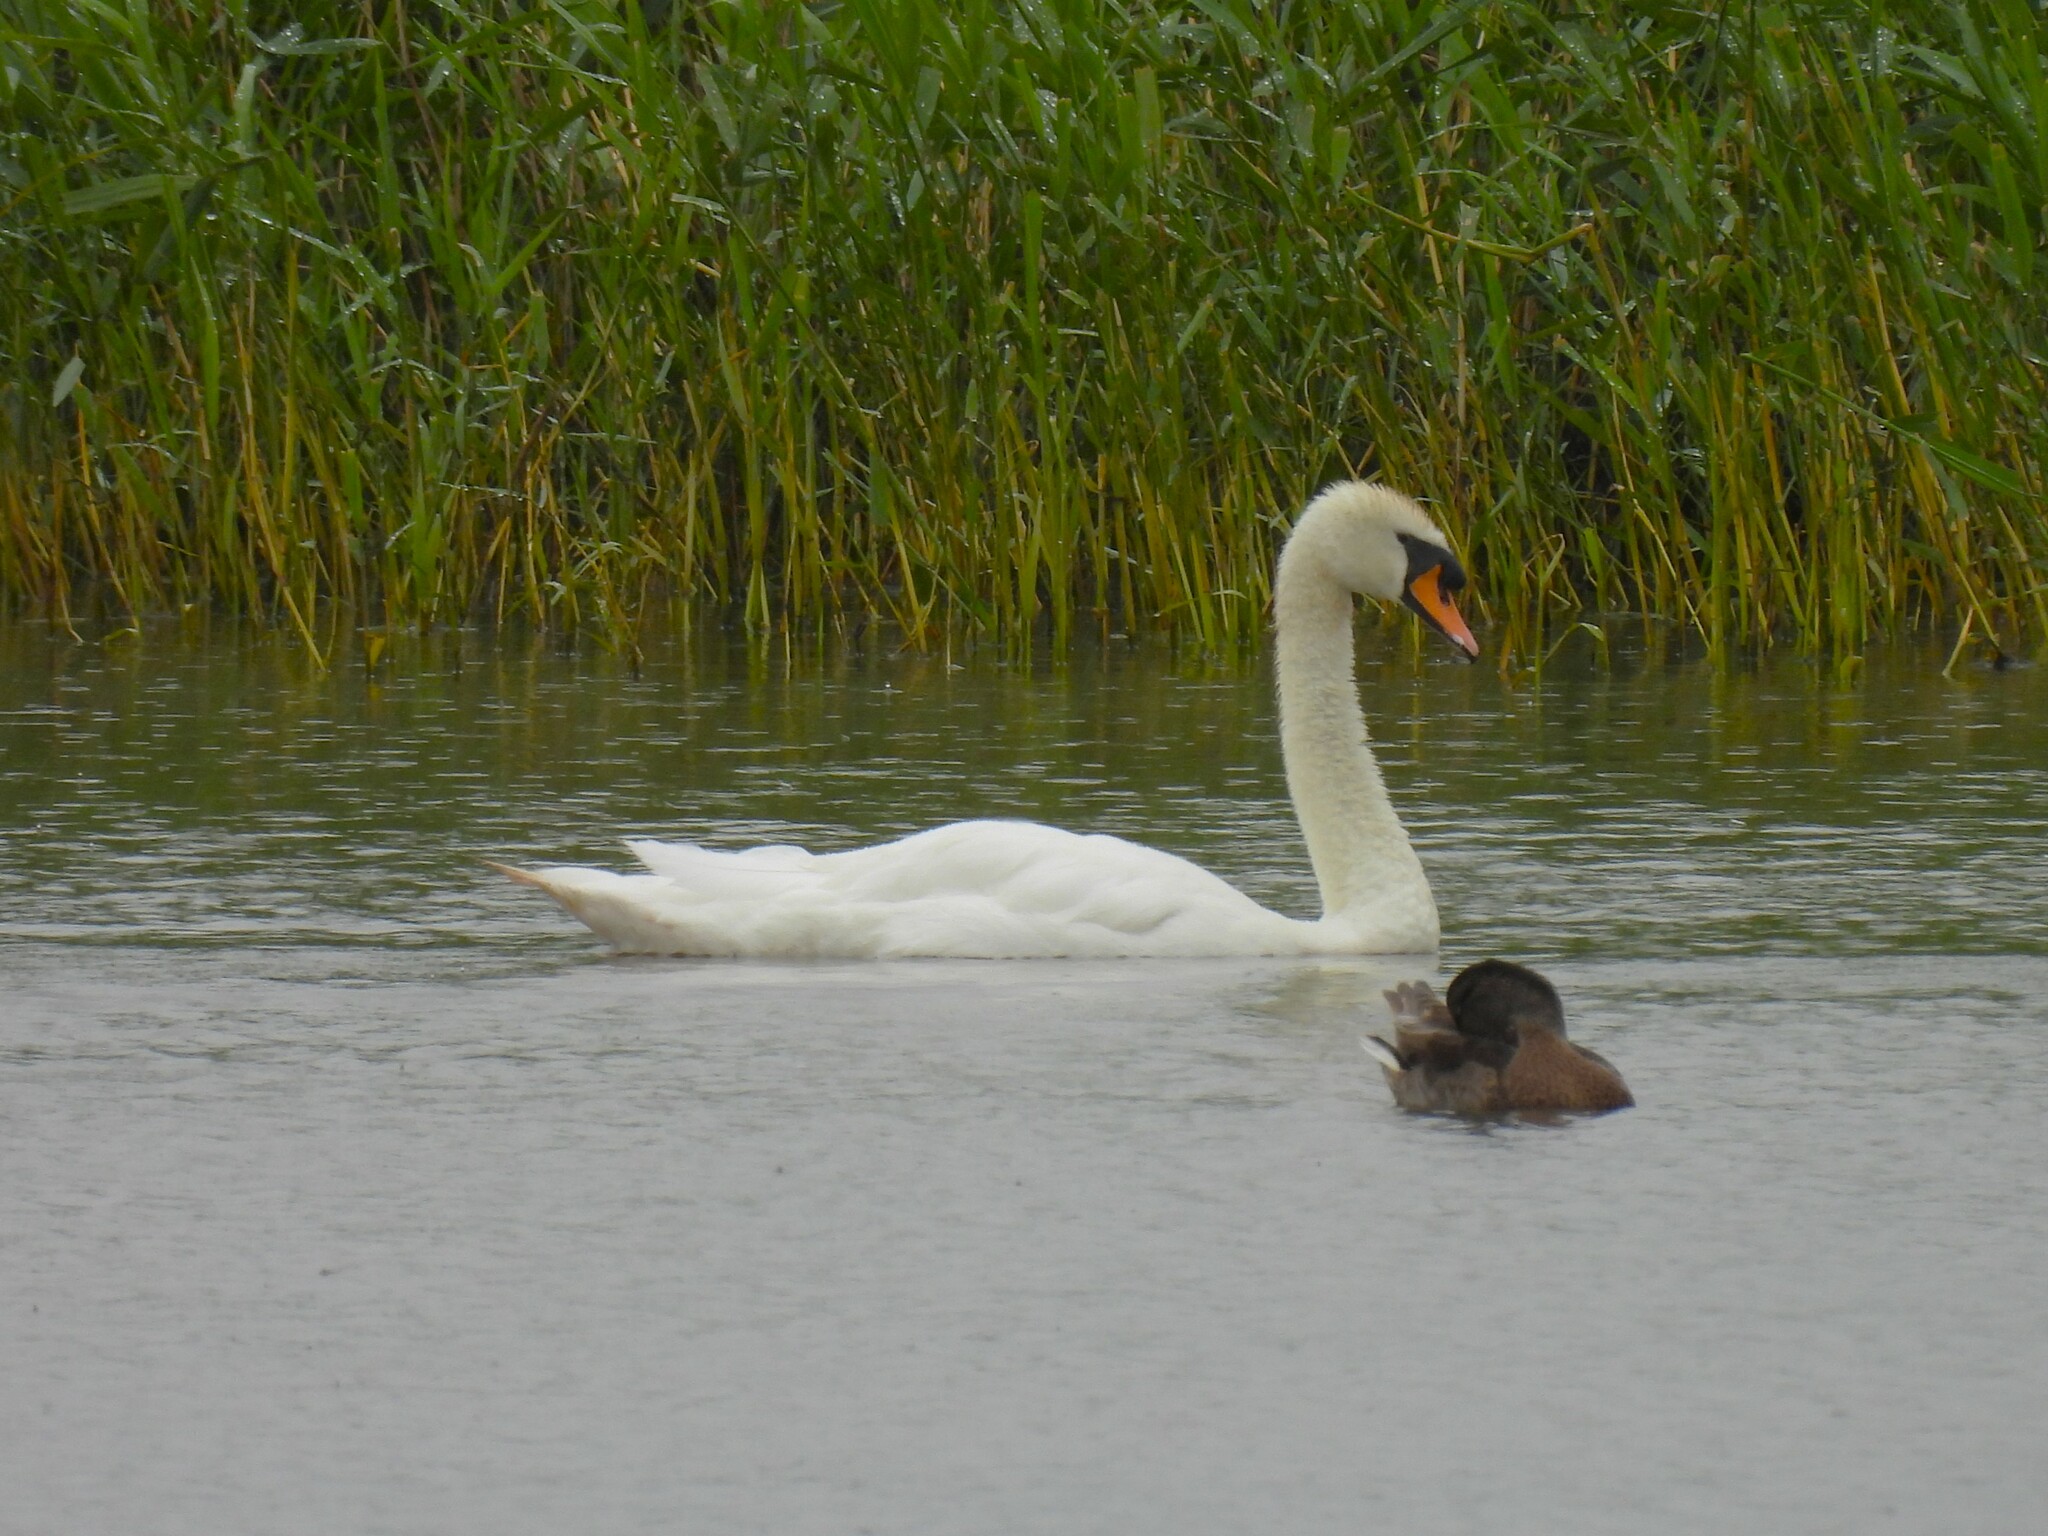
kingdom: Animalia
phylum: Chordata
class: Aves
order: Anseriformes
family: Anatidae
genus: Cygnus
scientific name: Cygnus olor
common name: Mute swan
